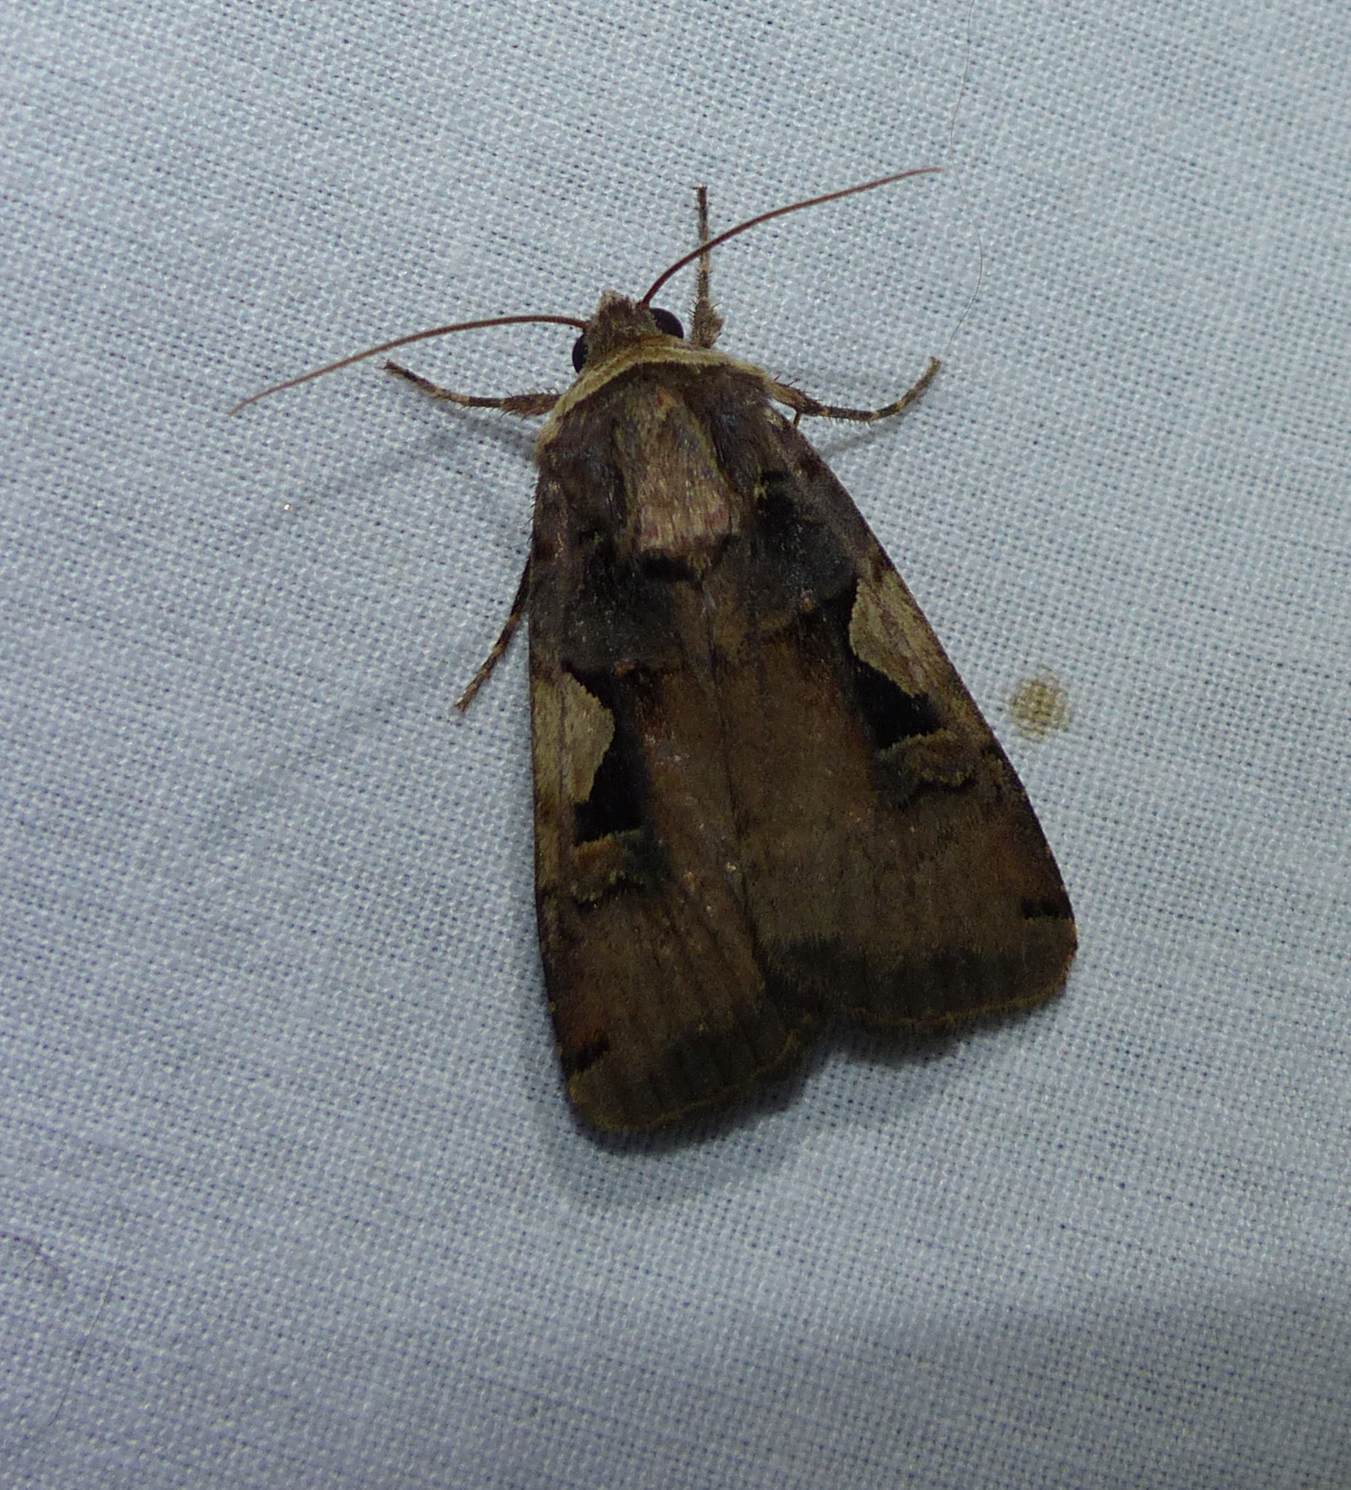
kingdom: Animalia
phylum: Arthropoda
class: Insecta
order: Lepidoptera
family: Noctuidae
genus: Xestia
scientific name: Xestia
